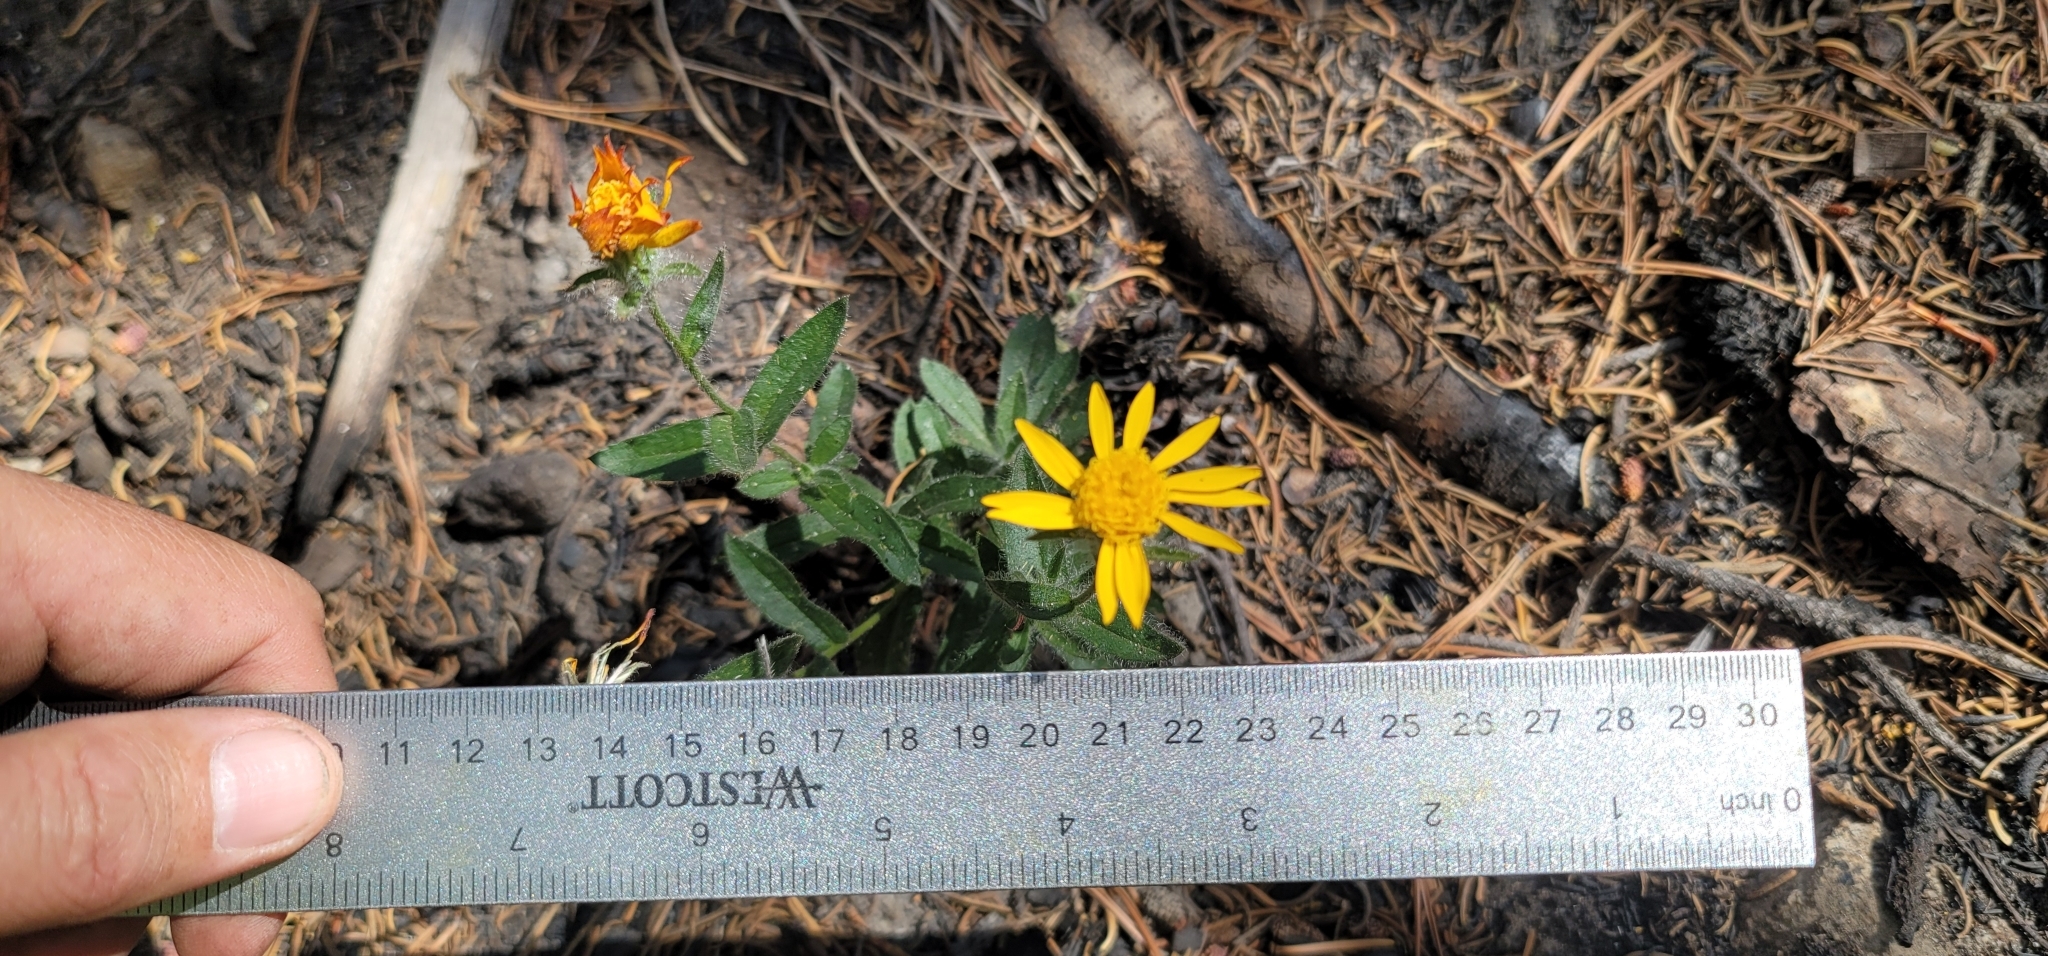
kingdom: Plantae
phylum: Tracheophyta
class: Magnoliopsida
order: Asterales
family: Asteraceae
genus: Hulsea
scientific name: Hulsea brevifolia
